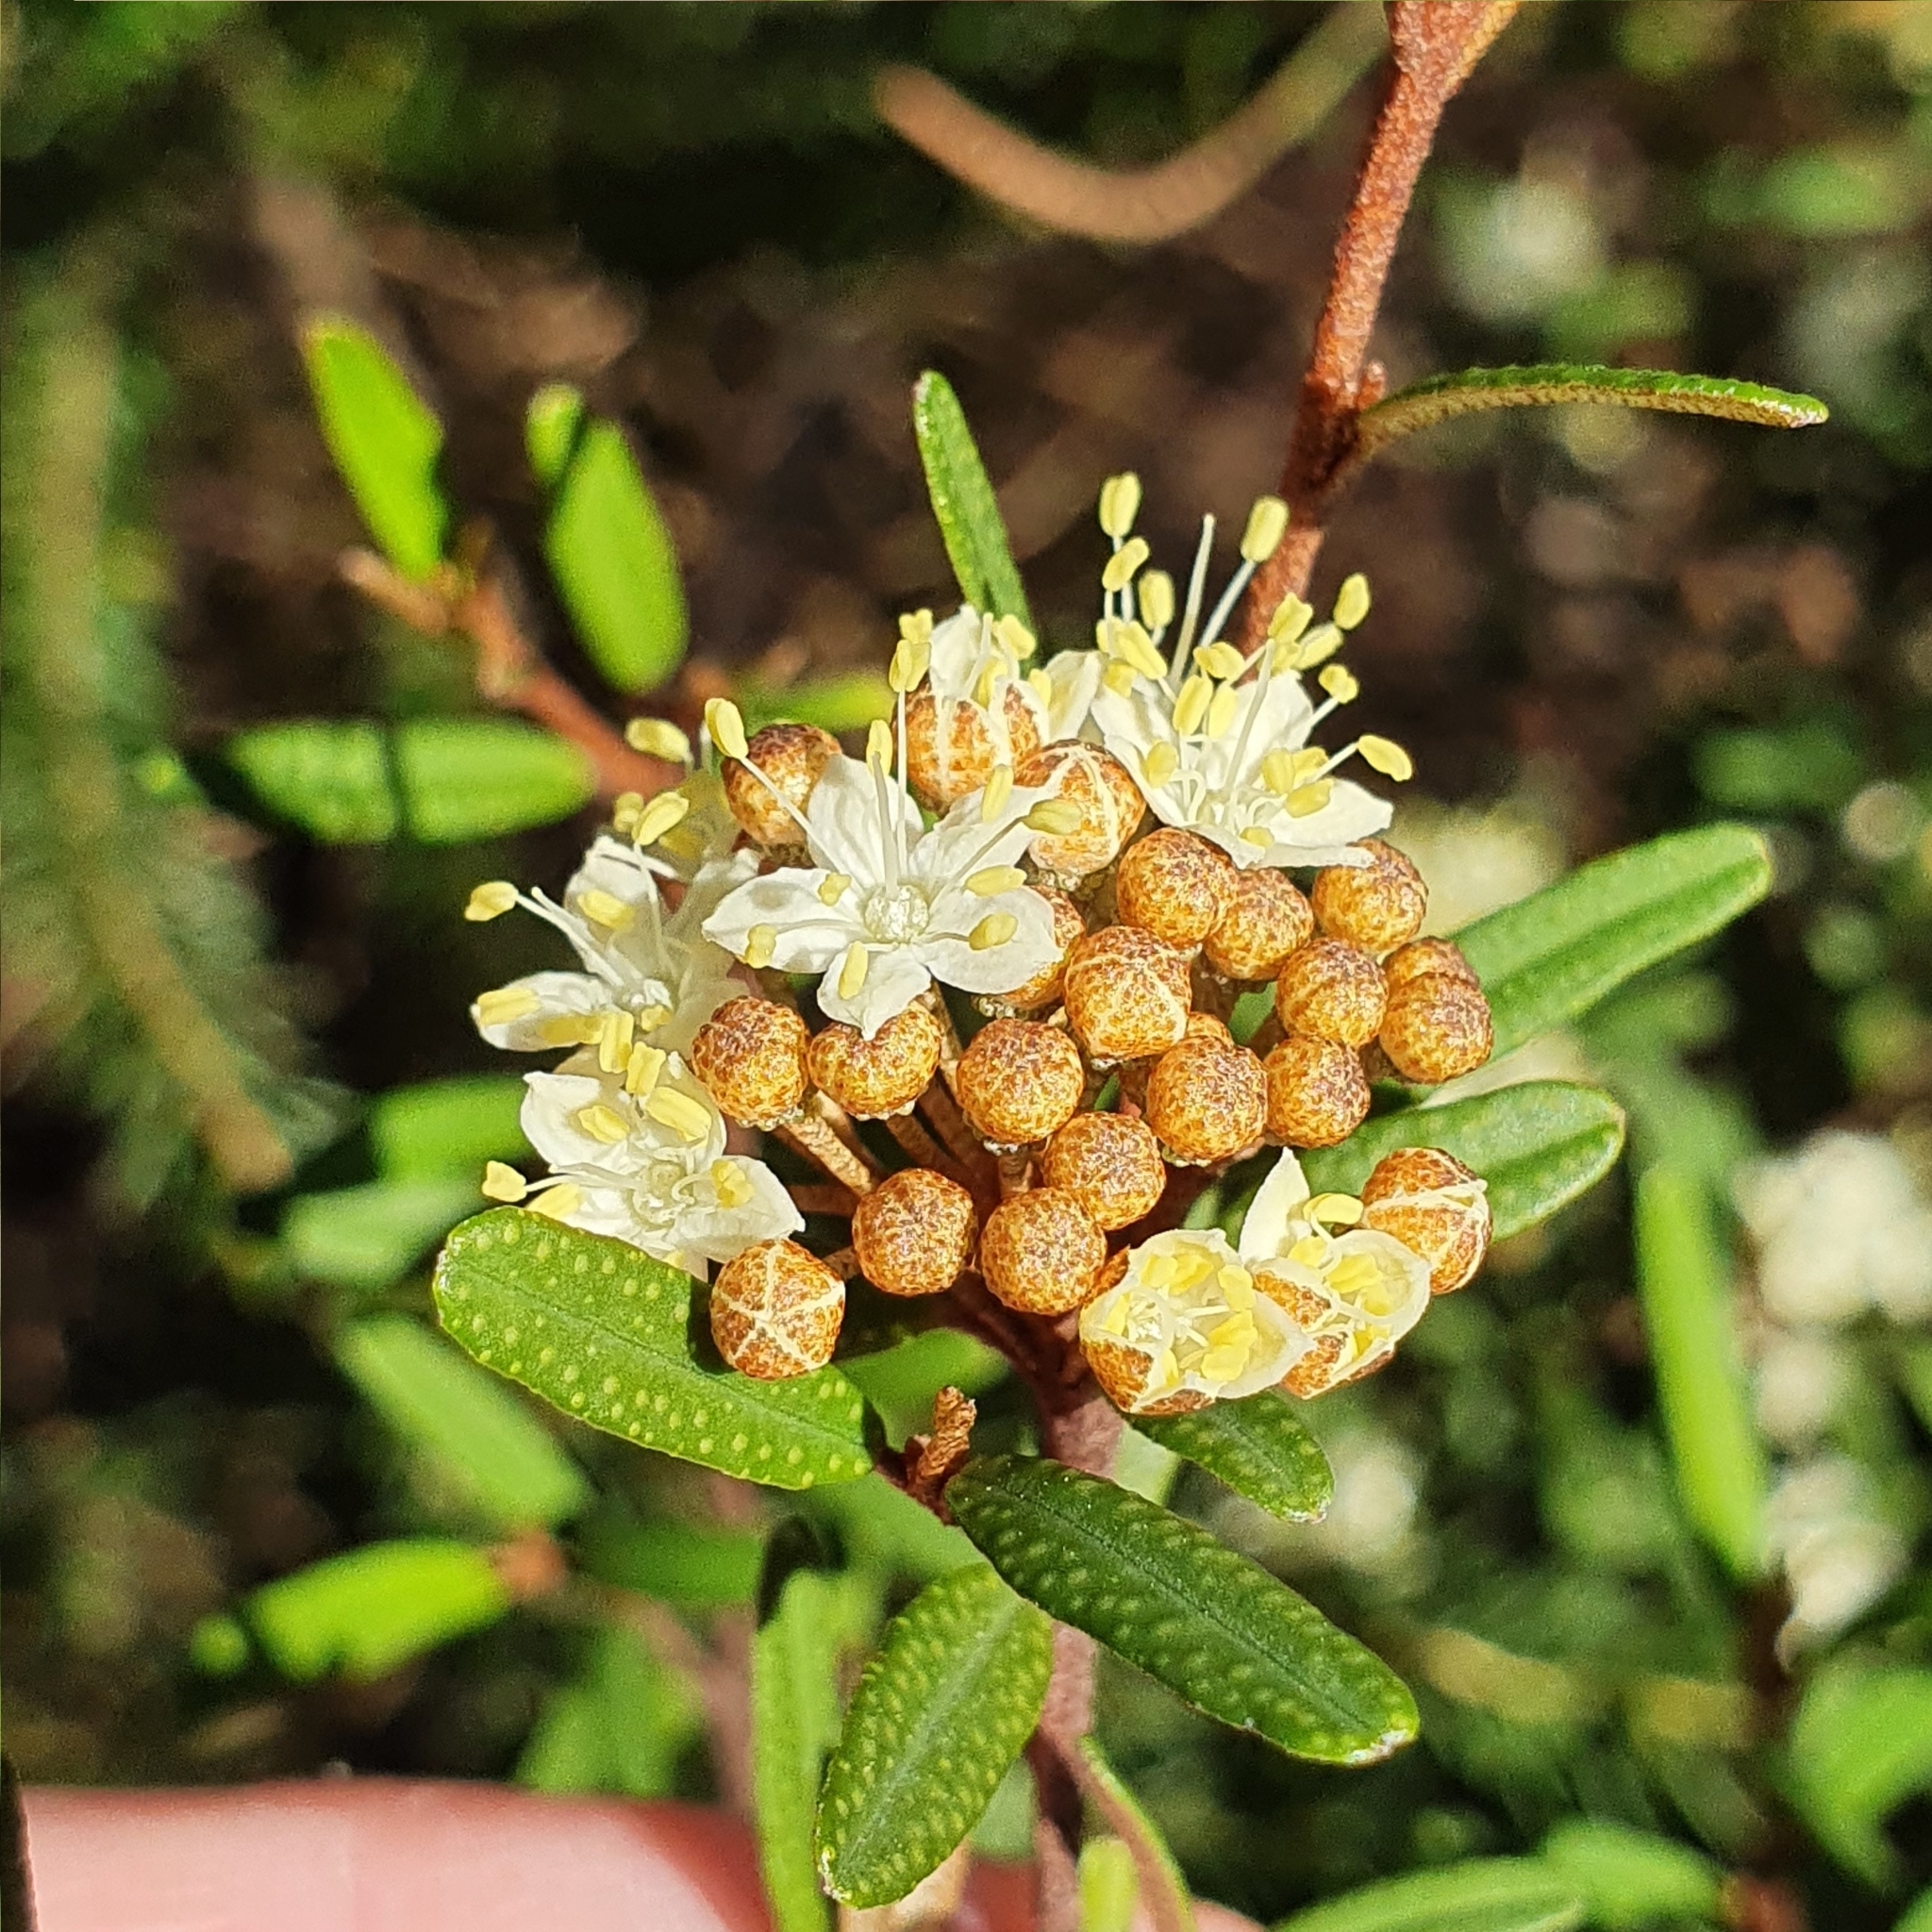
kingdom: Plantae
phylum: Tracheophyta
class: Magnoliopsida
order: Sapindales
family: Rutaceae
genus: Phebalium
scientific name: Phebalium squamulosum
